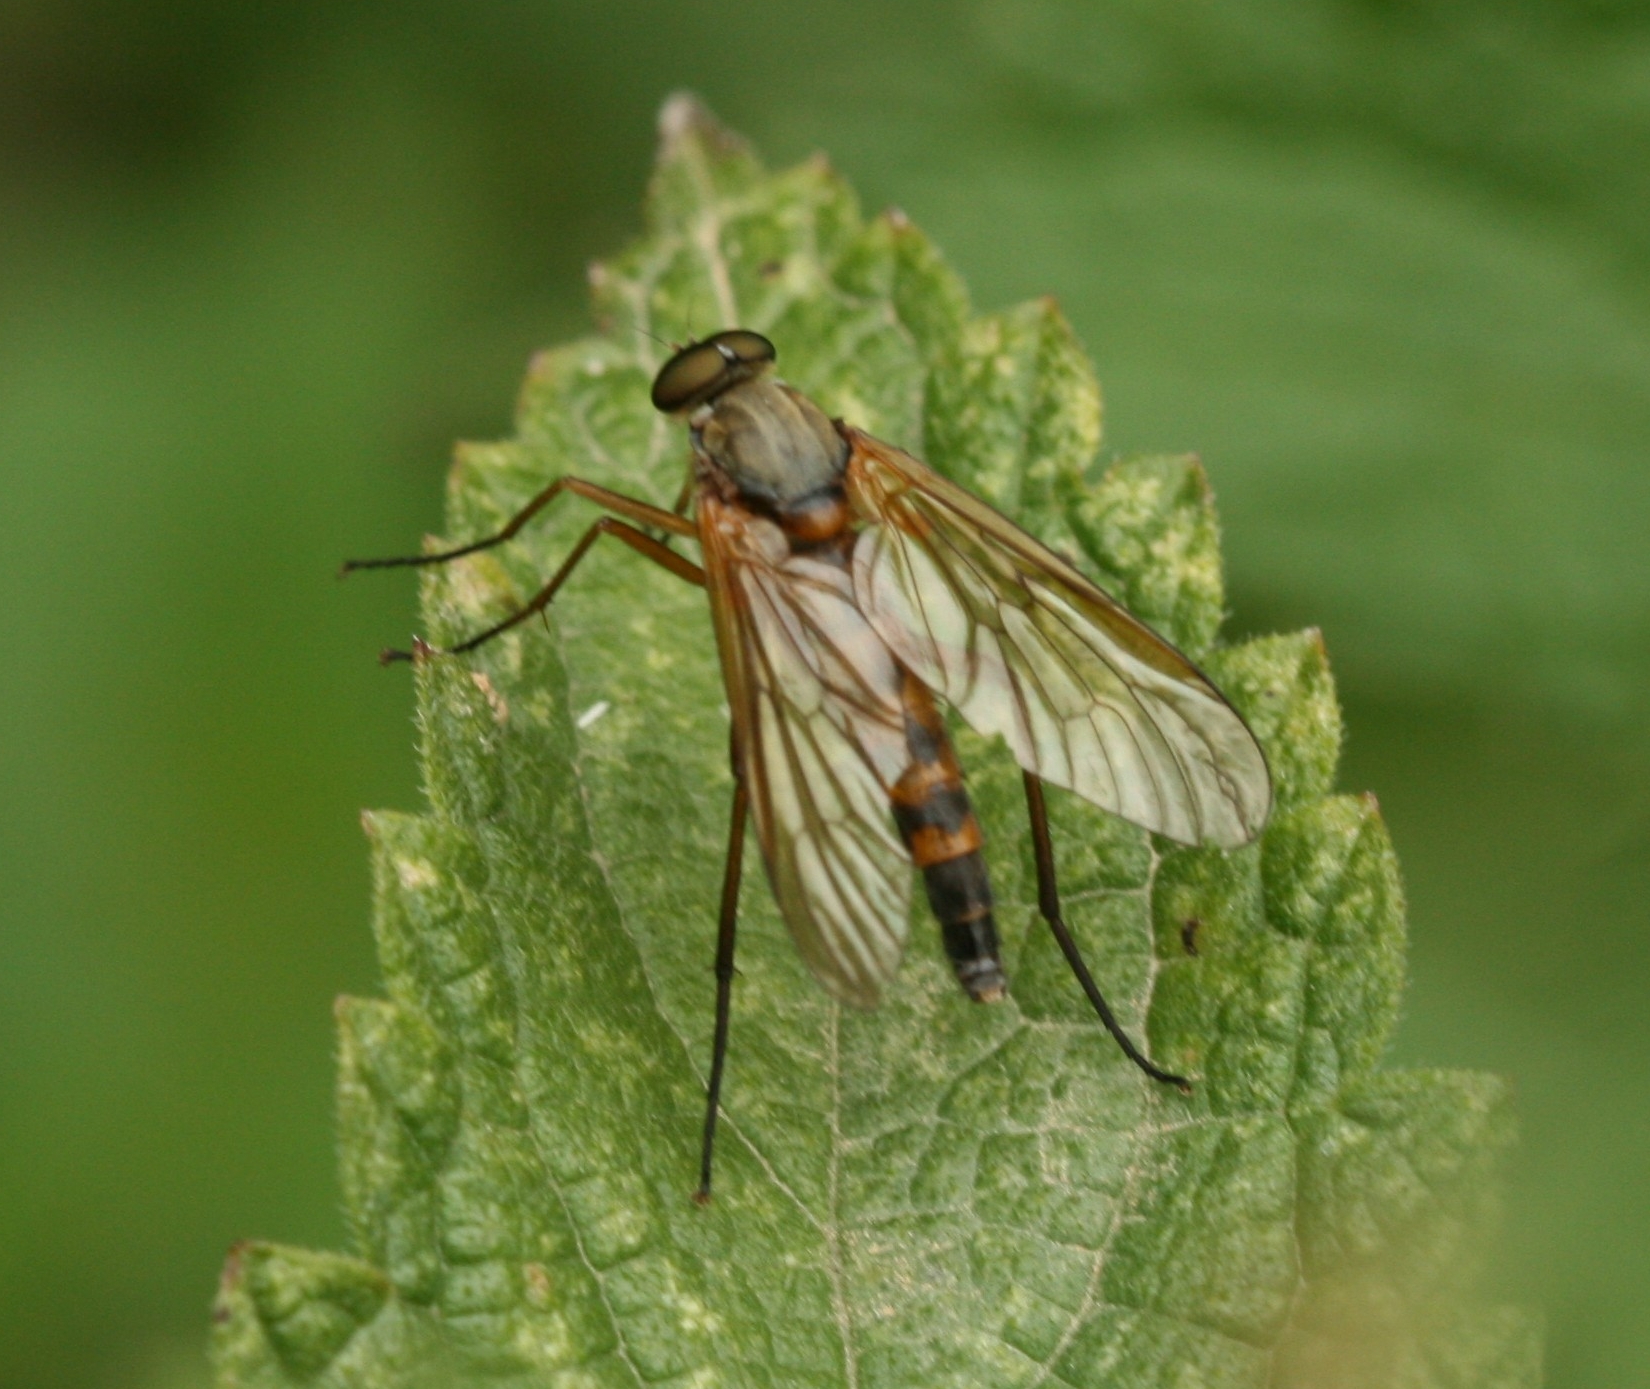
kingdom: Animalia
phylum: Arthropoda
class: Insecta
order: Diptera
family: Rhagionidae
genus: Rhagio
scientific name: Rhagio tringaria
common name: Marsh snipefly
